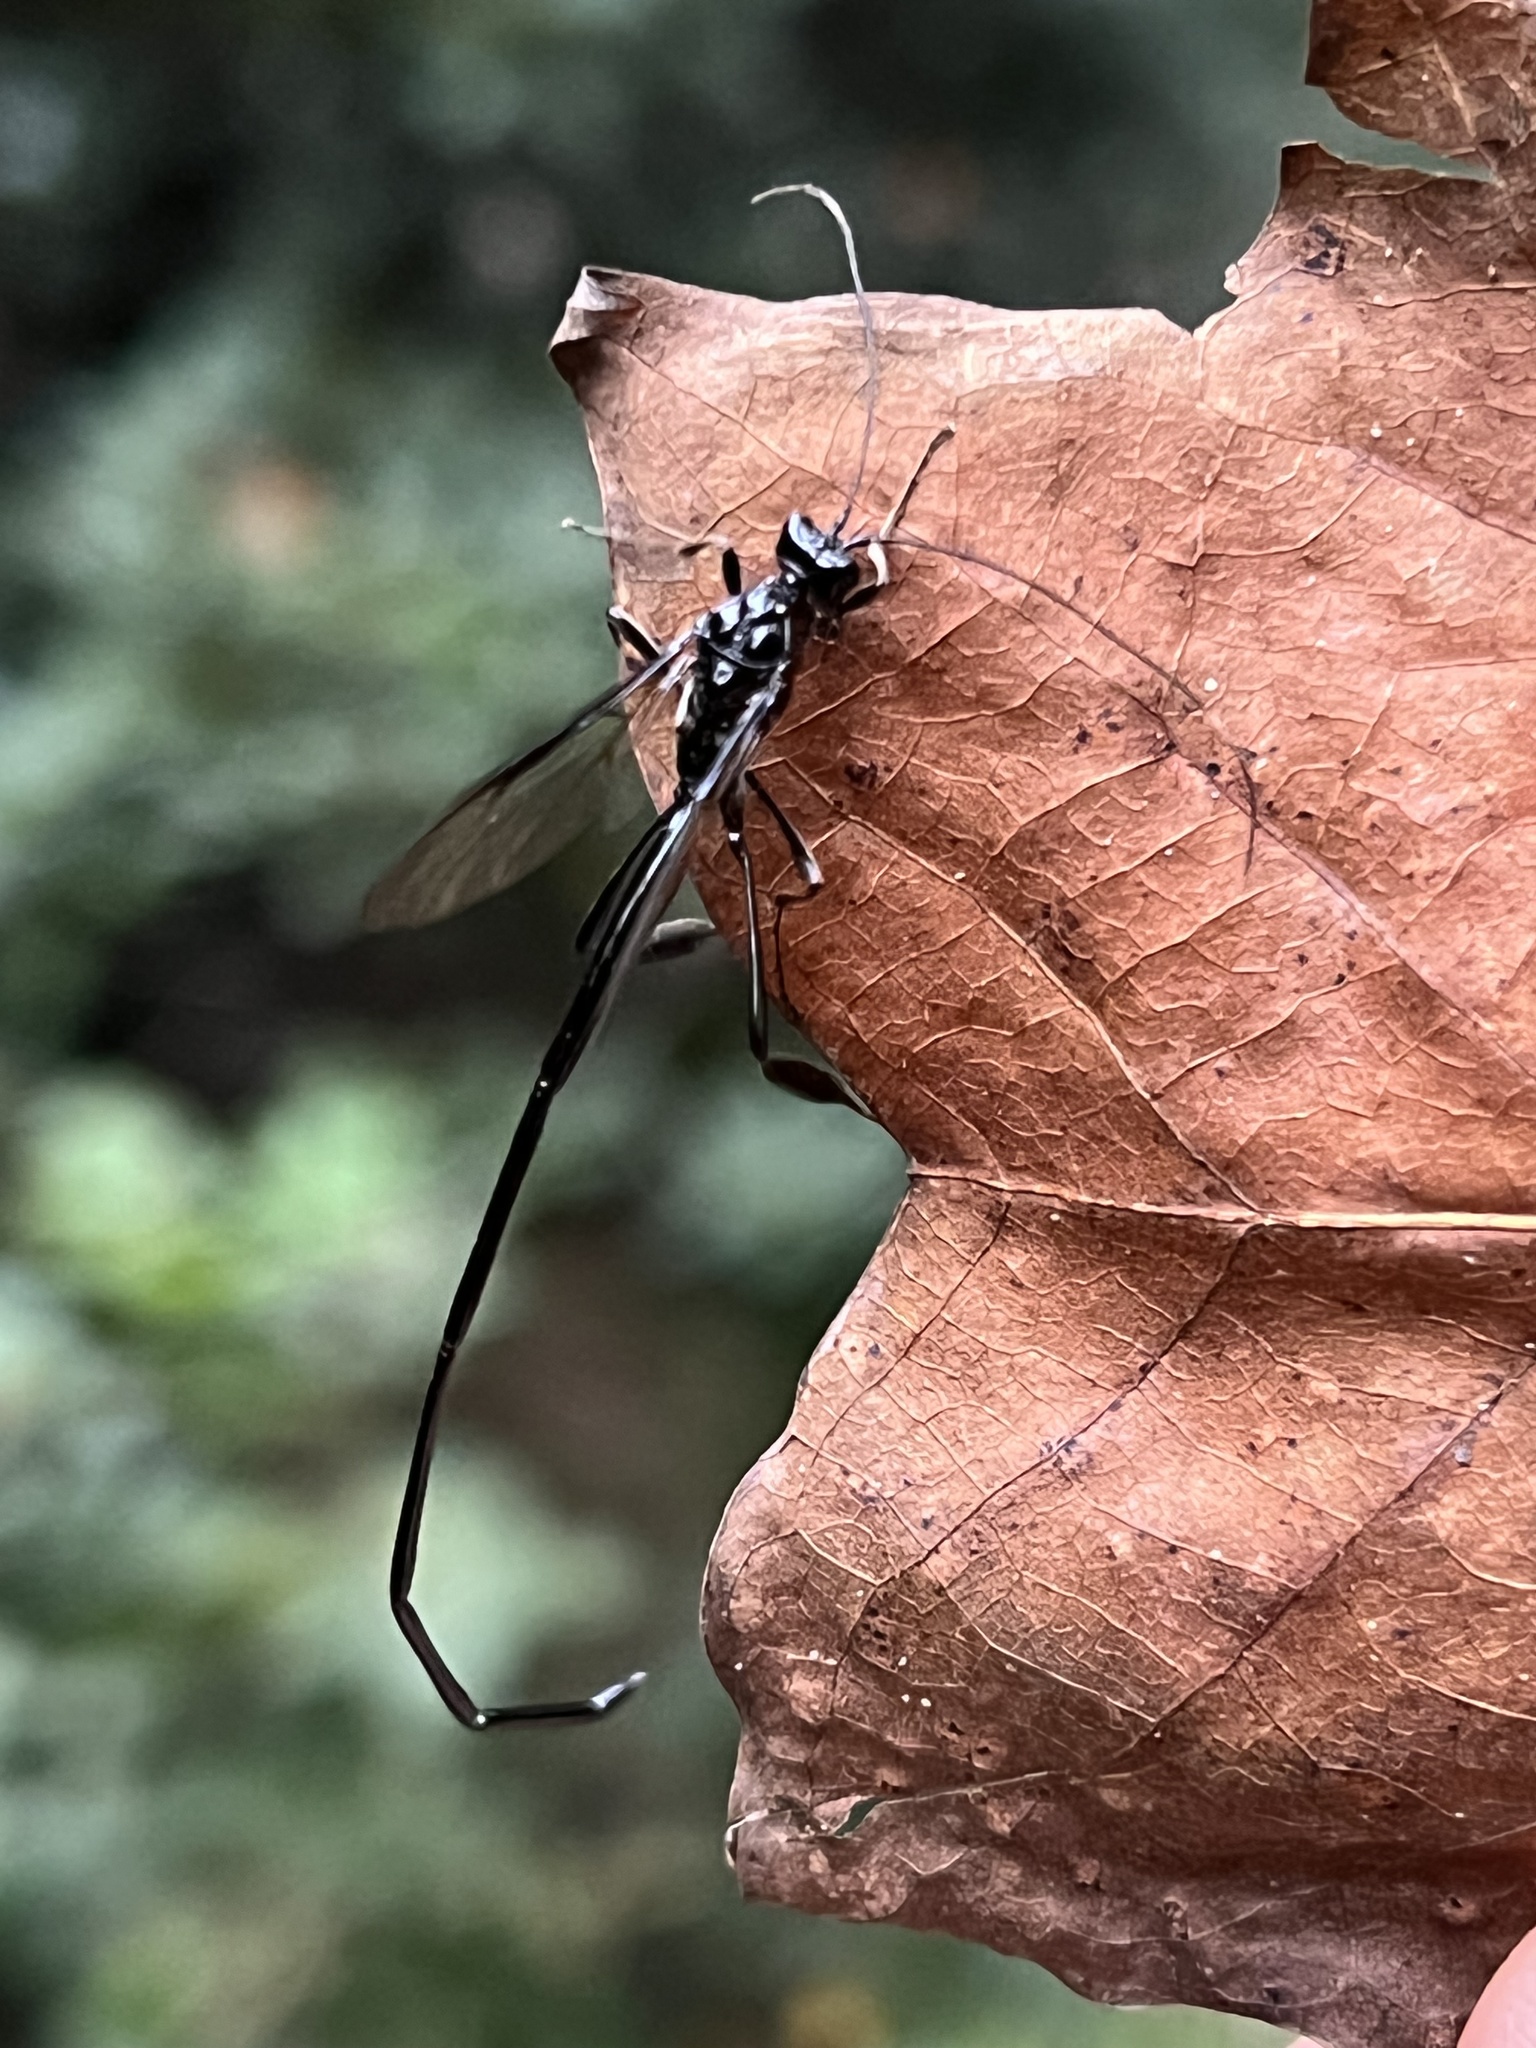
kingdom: Animalia
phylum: Arthropoda
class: Insecta
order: Hymenoptera
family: Pelecinidae
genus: Pelecinus
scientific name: Pelecinus polyturator
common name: American pelecinid wasp
